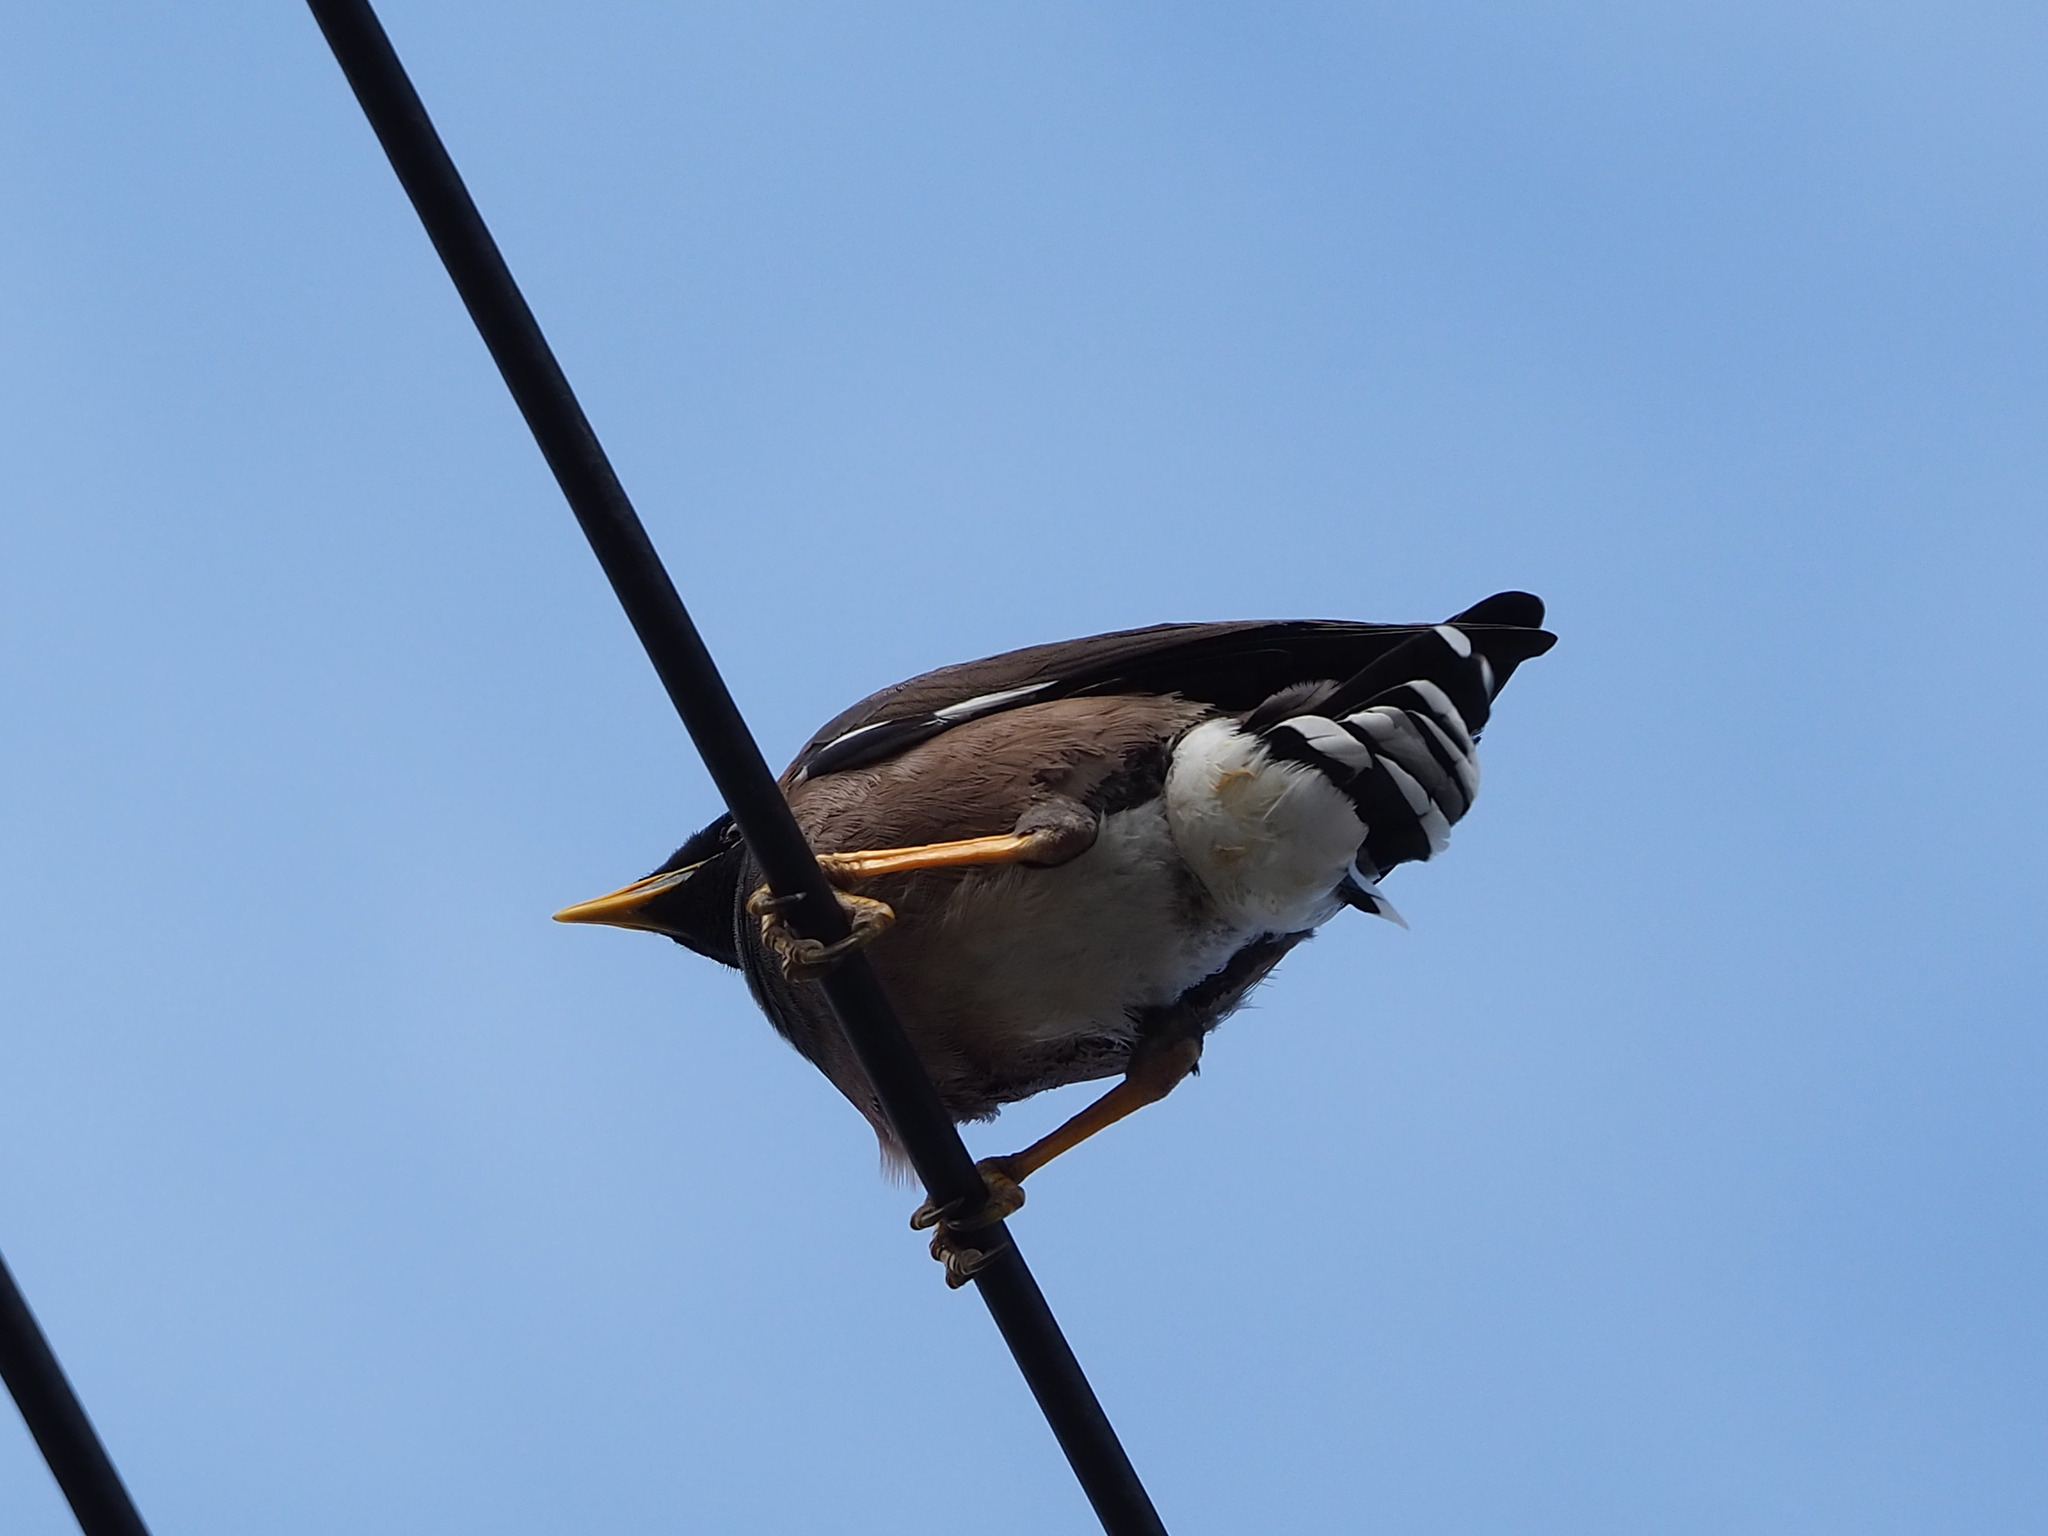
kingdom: Animalia
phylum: Chordata
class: Aves
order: Passeriformes
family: Sturnidae
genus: Acridotheres
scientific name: Acridotheres tristis
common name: Common myna
